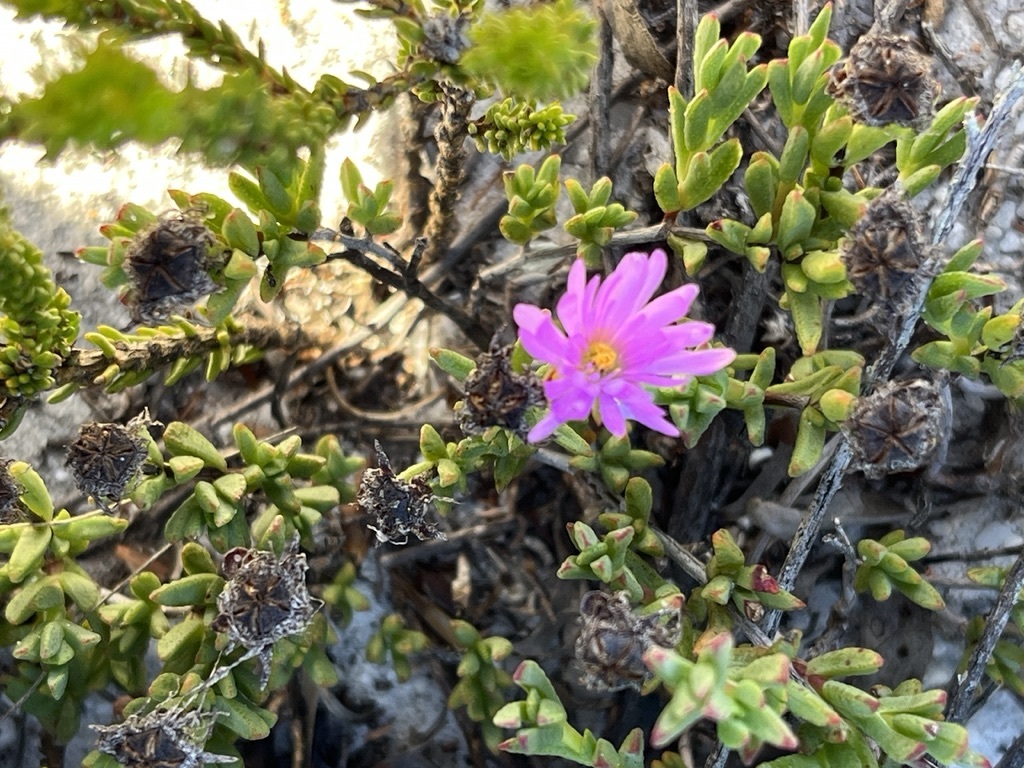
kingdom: Plantae
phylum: Tracheophyta
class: Magnoliopsida
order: Caryophyllales
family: Aizoaceae
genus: Lampranthus
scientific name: Lampranthus glomeratus
